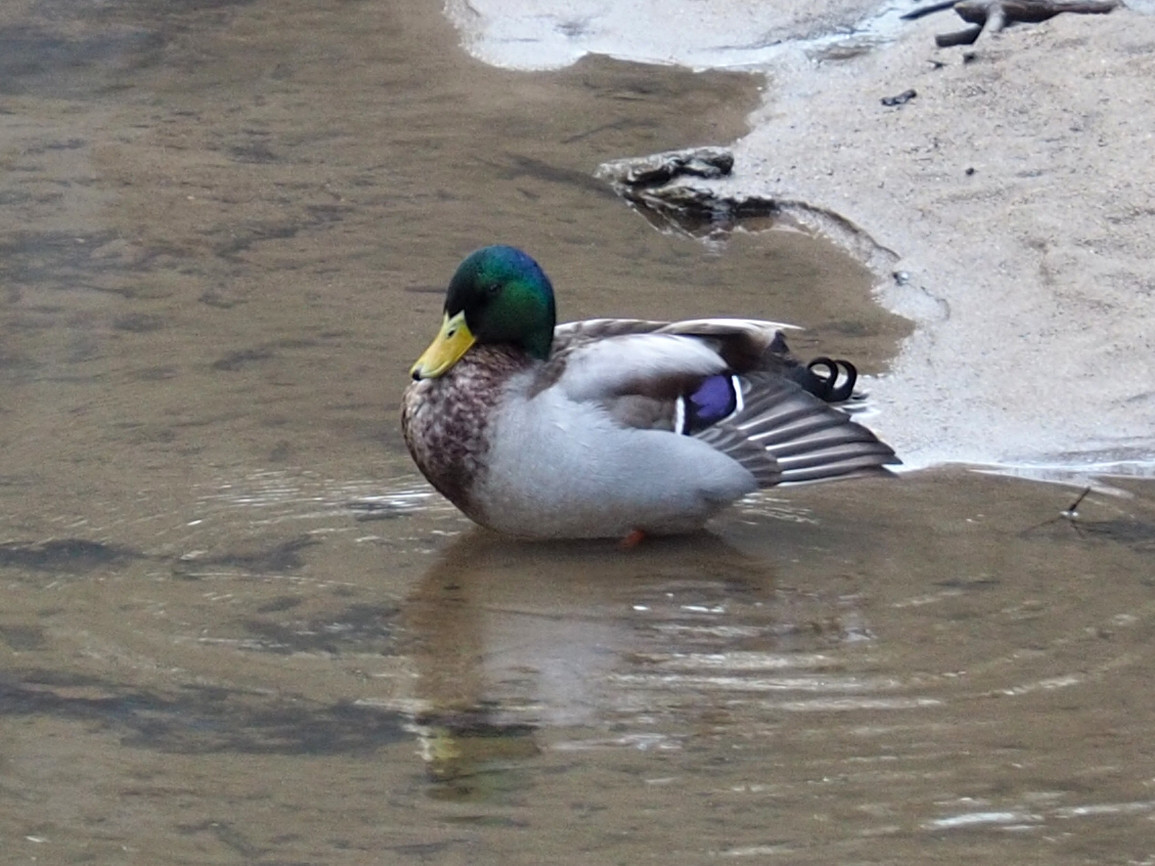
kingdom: Animalia
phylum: Chordata
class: Aves
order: Anseriformes
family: Anatidae
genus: Anas
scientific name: Anas platyrhynchos
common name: Mallard
